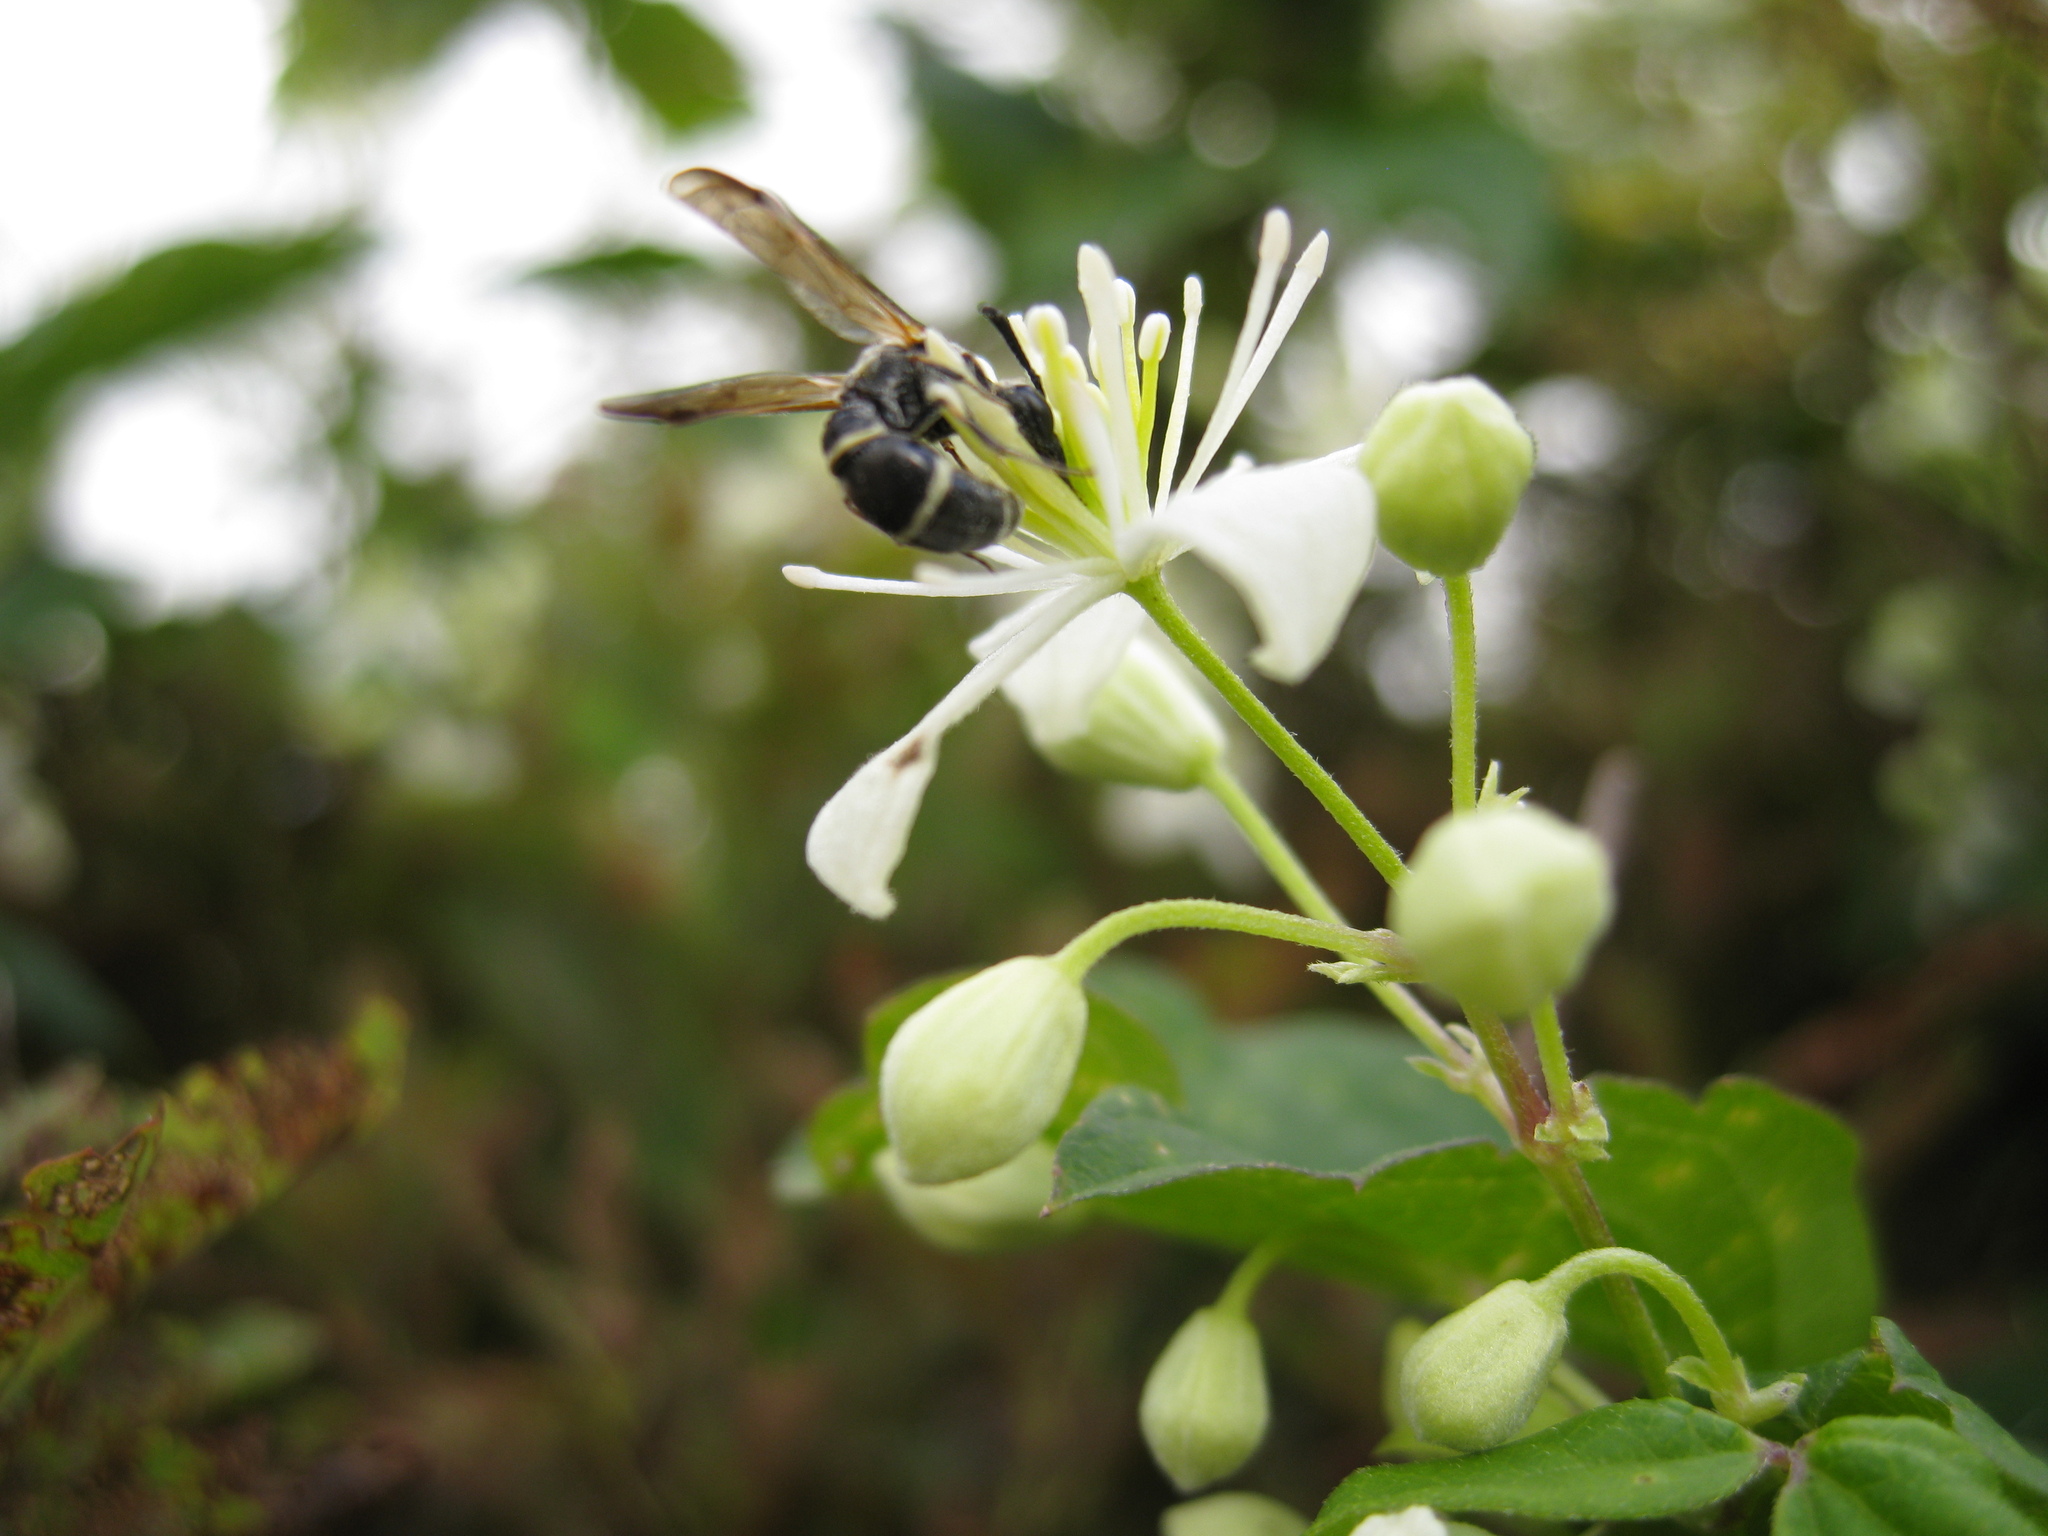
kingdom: Animalia
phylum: Arthropoda
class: Insecta
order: Hymenoptera
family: Eumenidae
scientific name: Eumenidae
